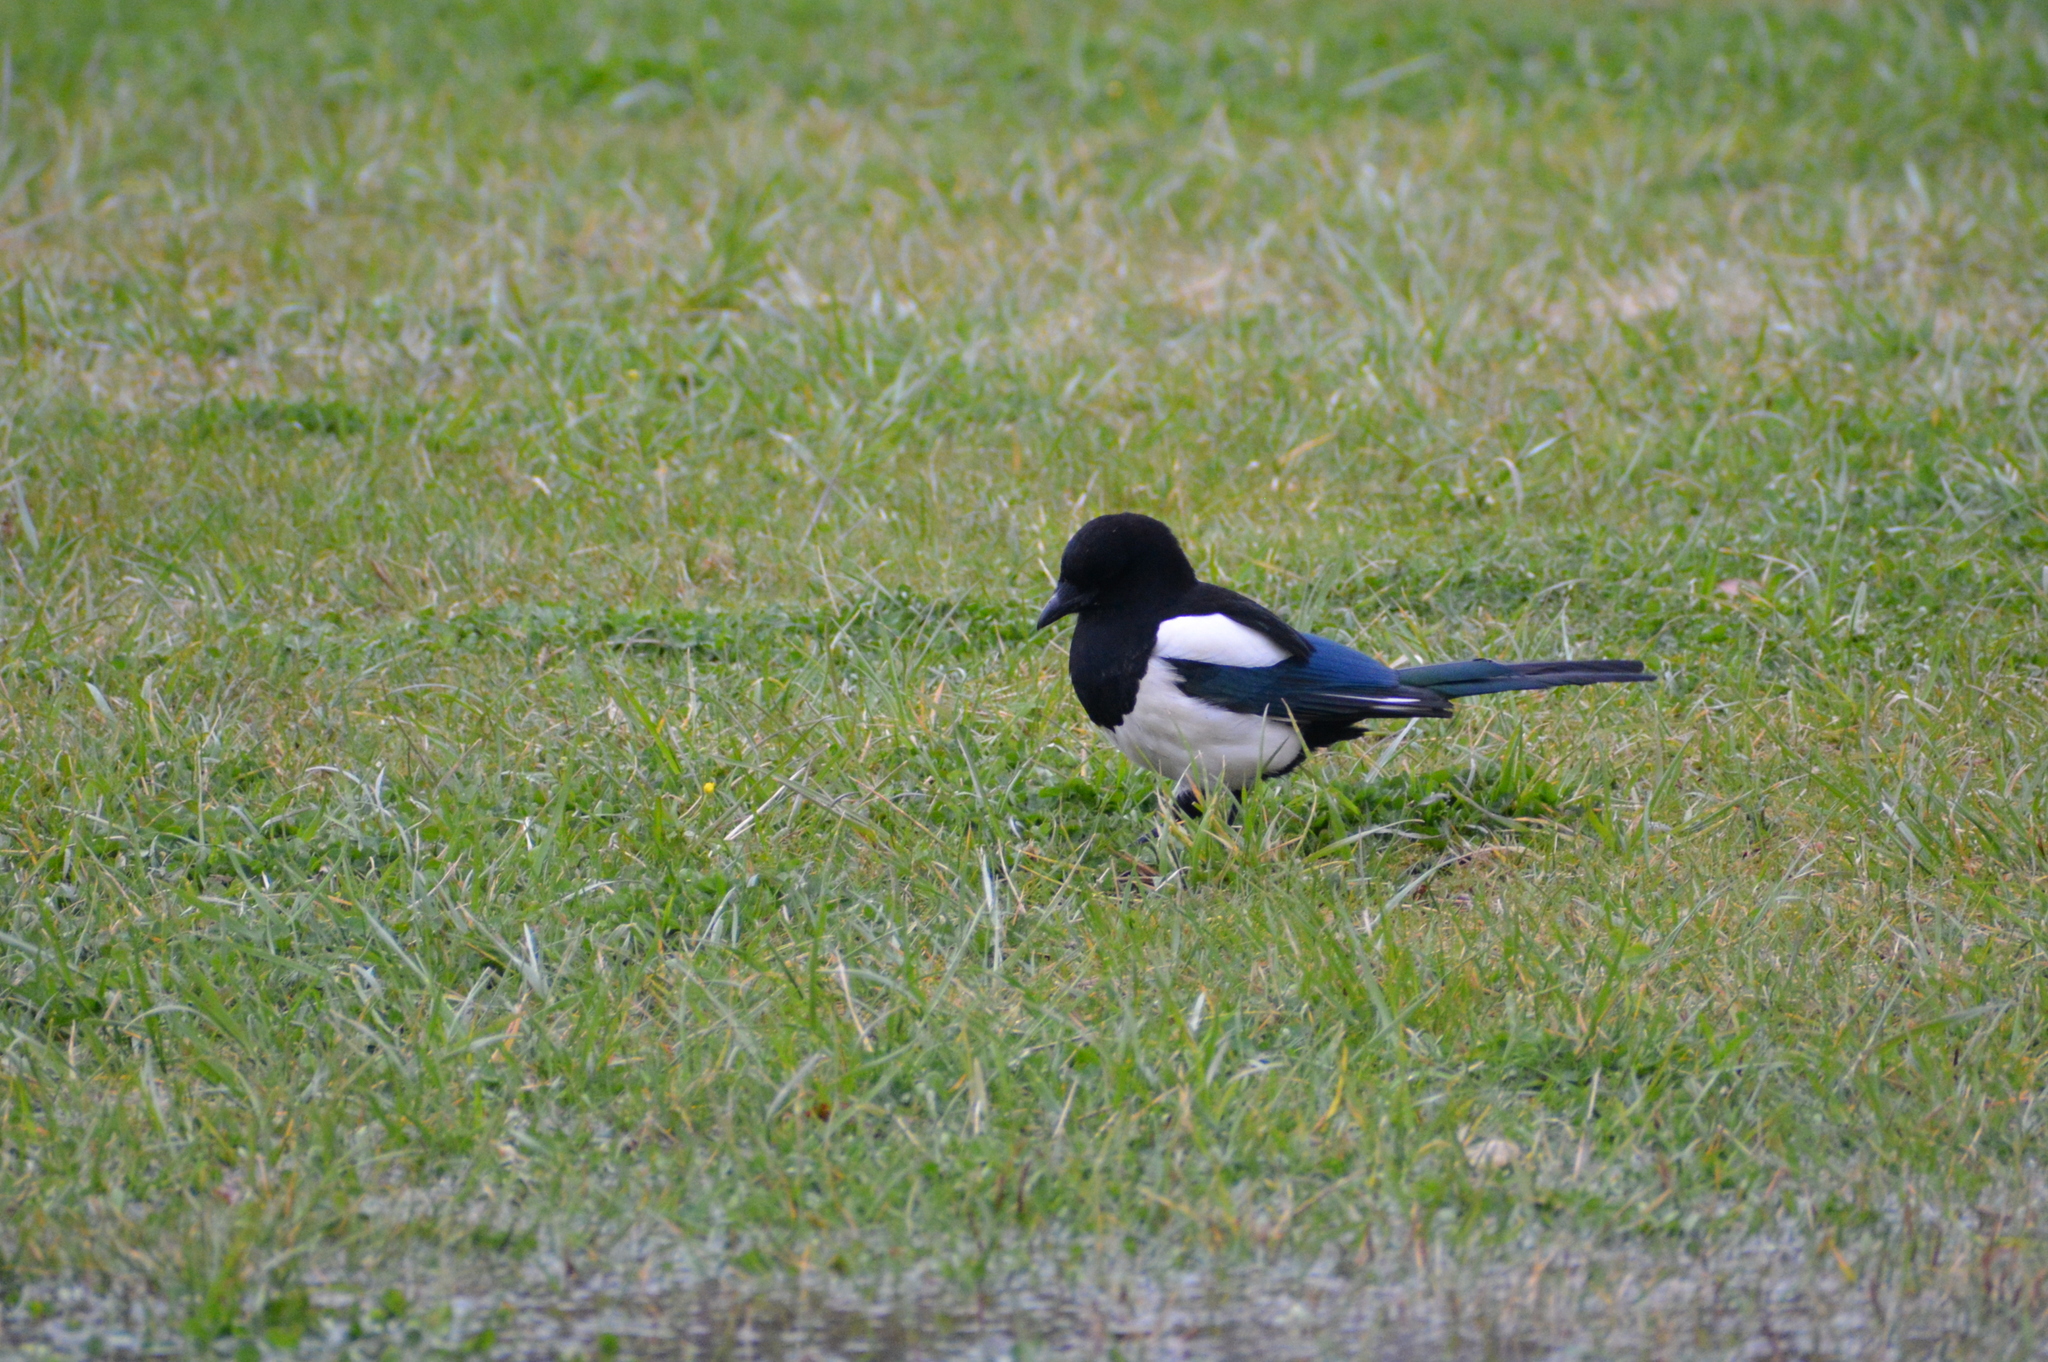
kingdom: Animalia
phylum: Chordata
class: Aves
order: Passeriformes
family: Corvidae
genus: Pica
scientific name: Pica pica
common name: Eurasian magpie
